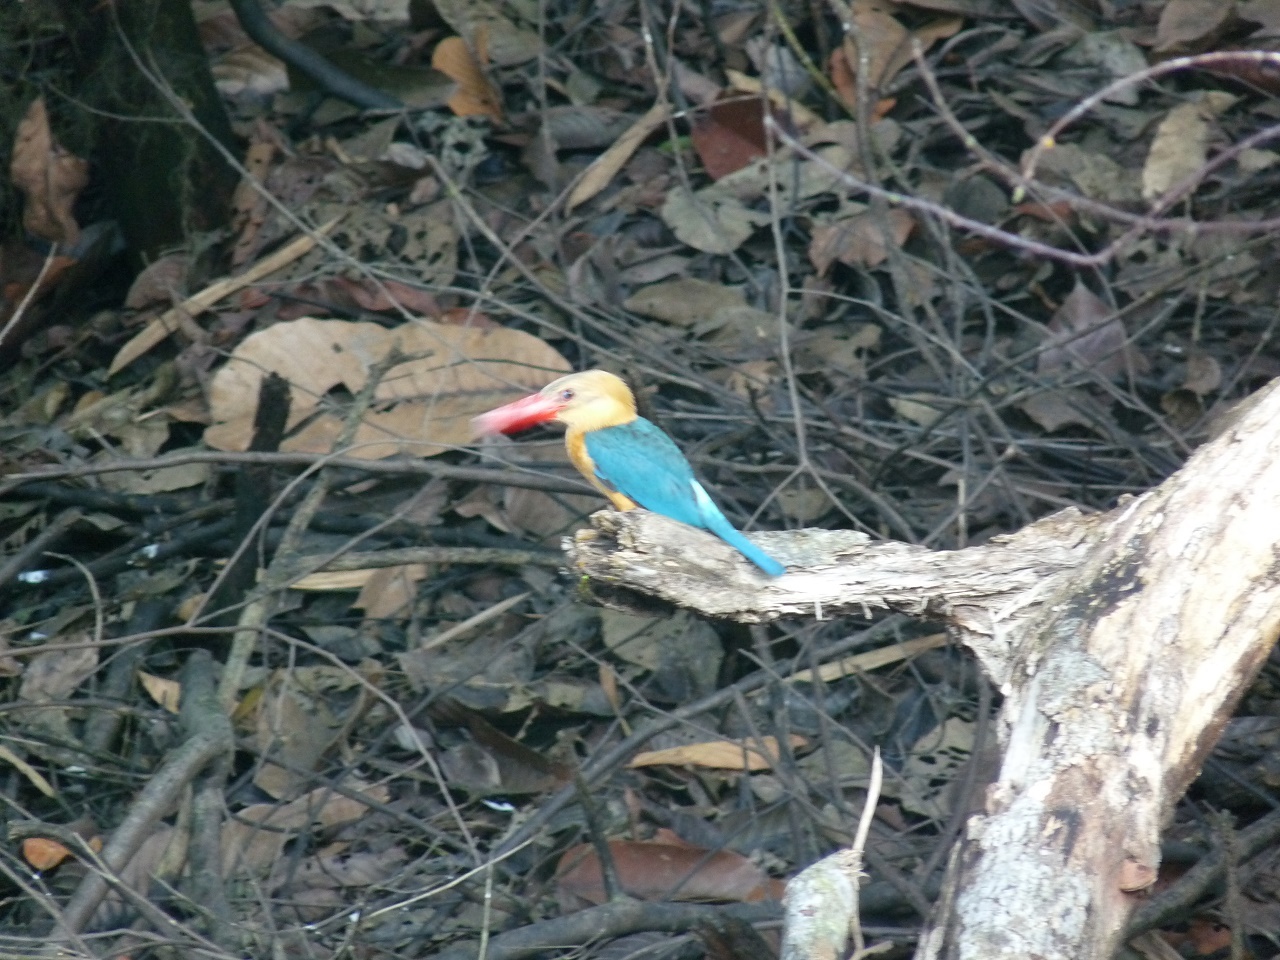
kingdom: Animalia
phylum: Chordata
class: Aves
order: Coraciiformes
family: Alcedinidae
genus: Pelargopsis
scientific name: Pelargopsis capensis
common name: Stork-billed kingfisher
